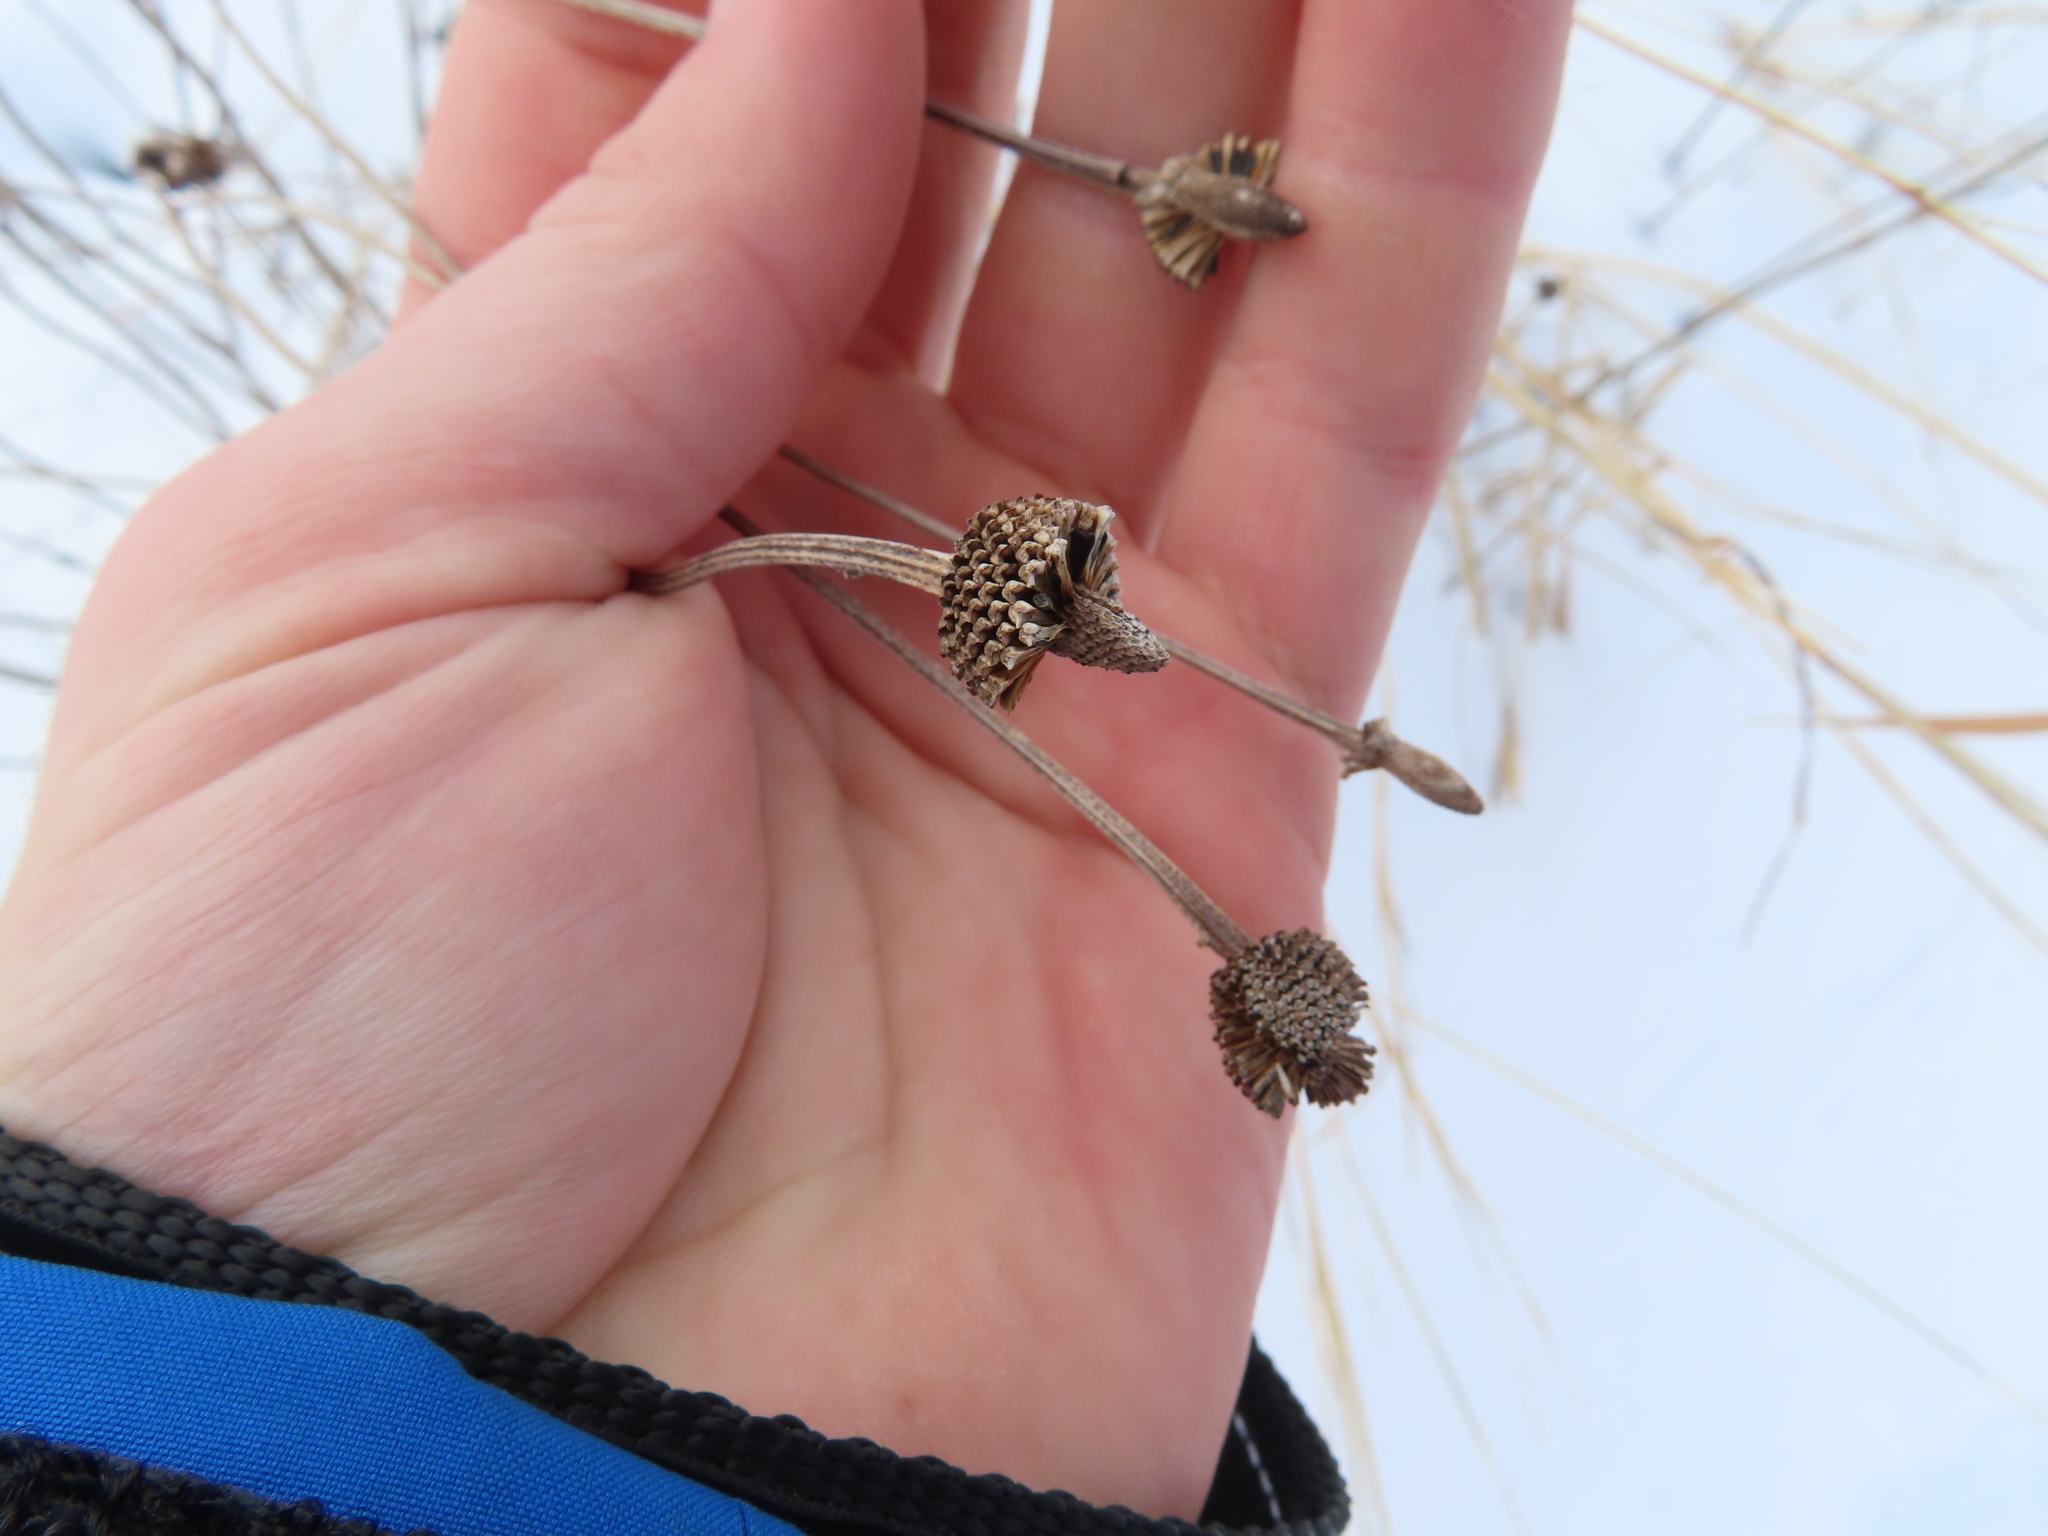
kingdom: Plantae
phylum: Tracheophyta
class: Magnoliopsida
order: Asterales
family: Asteraceae
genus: Ratibida
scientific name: Ratibida pinnata
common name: Drooping prairie-coneflower
